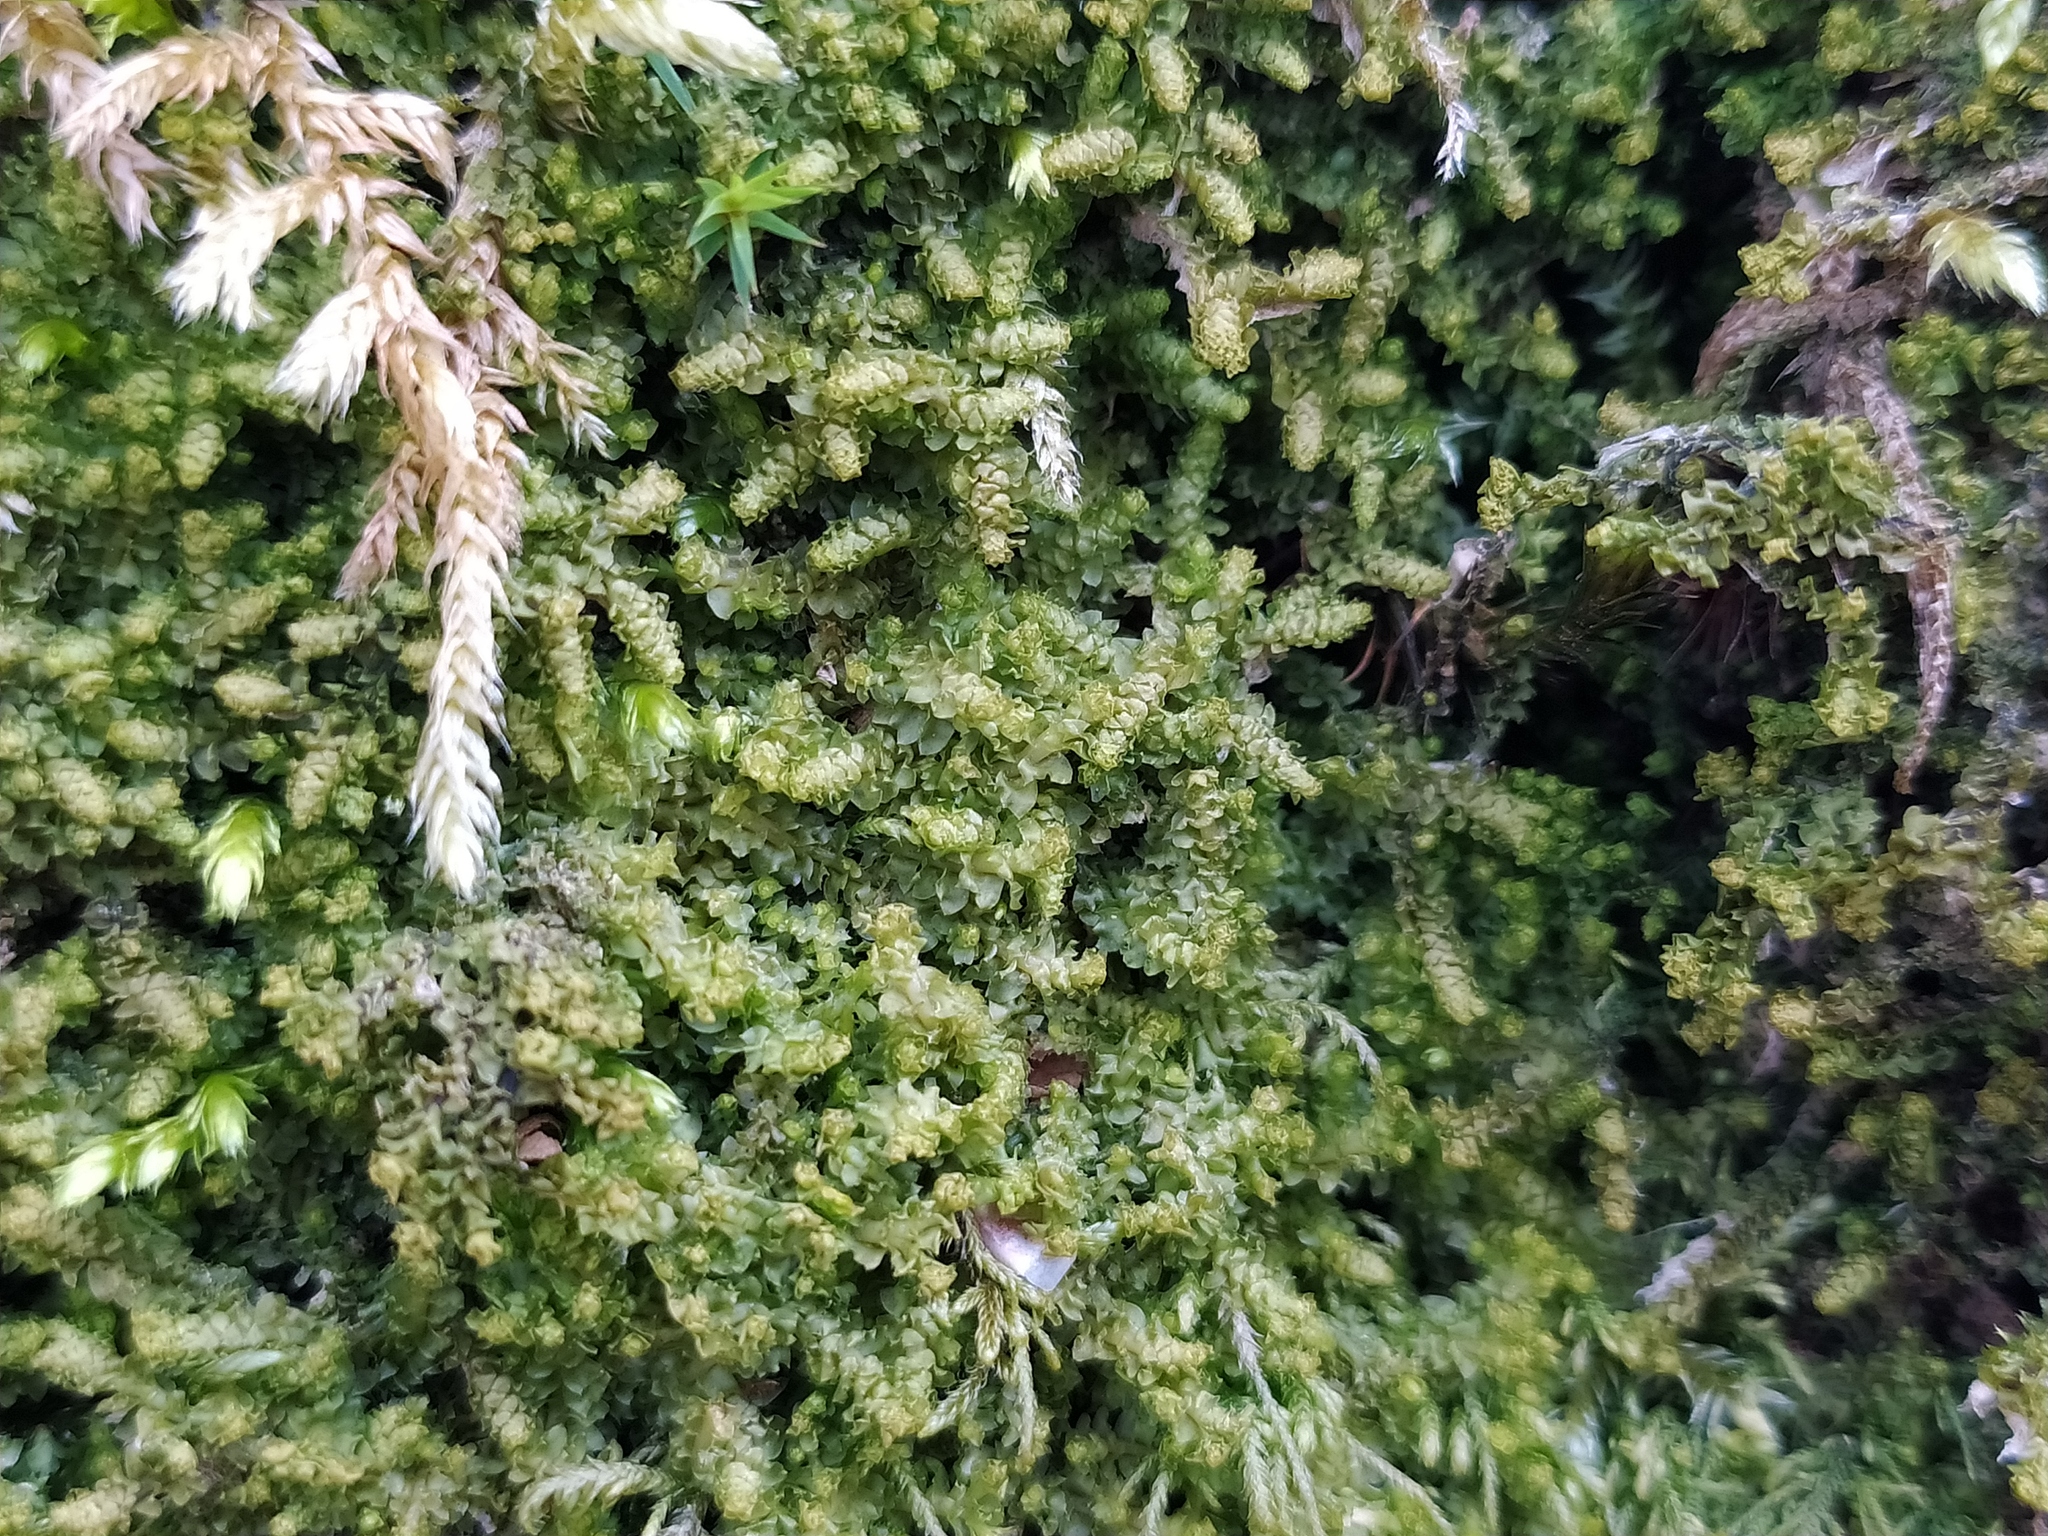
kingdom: Plantae
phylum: Marchantiophyta
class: Jungermanniopsida
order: Jungermanniales
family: Scapaniaceae
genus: Diplophyllum
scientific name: Diplophyllum albicans
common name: White earwort
